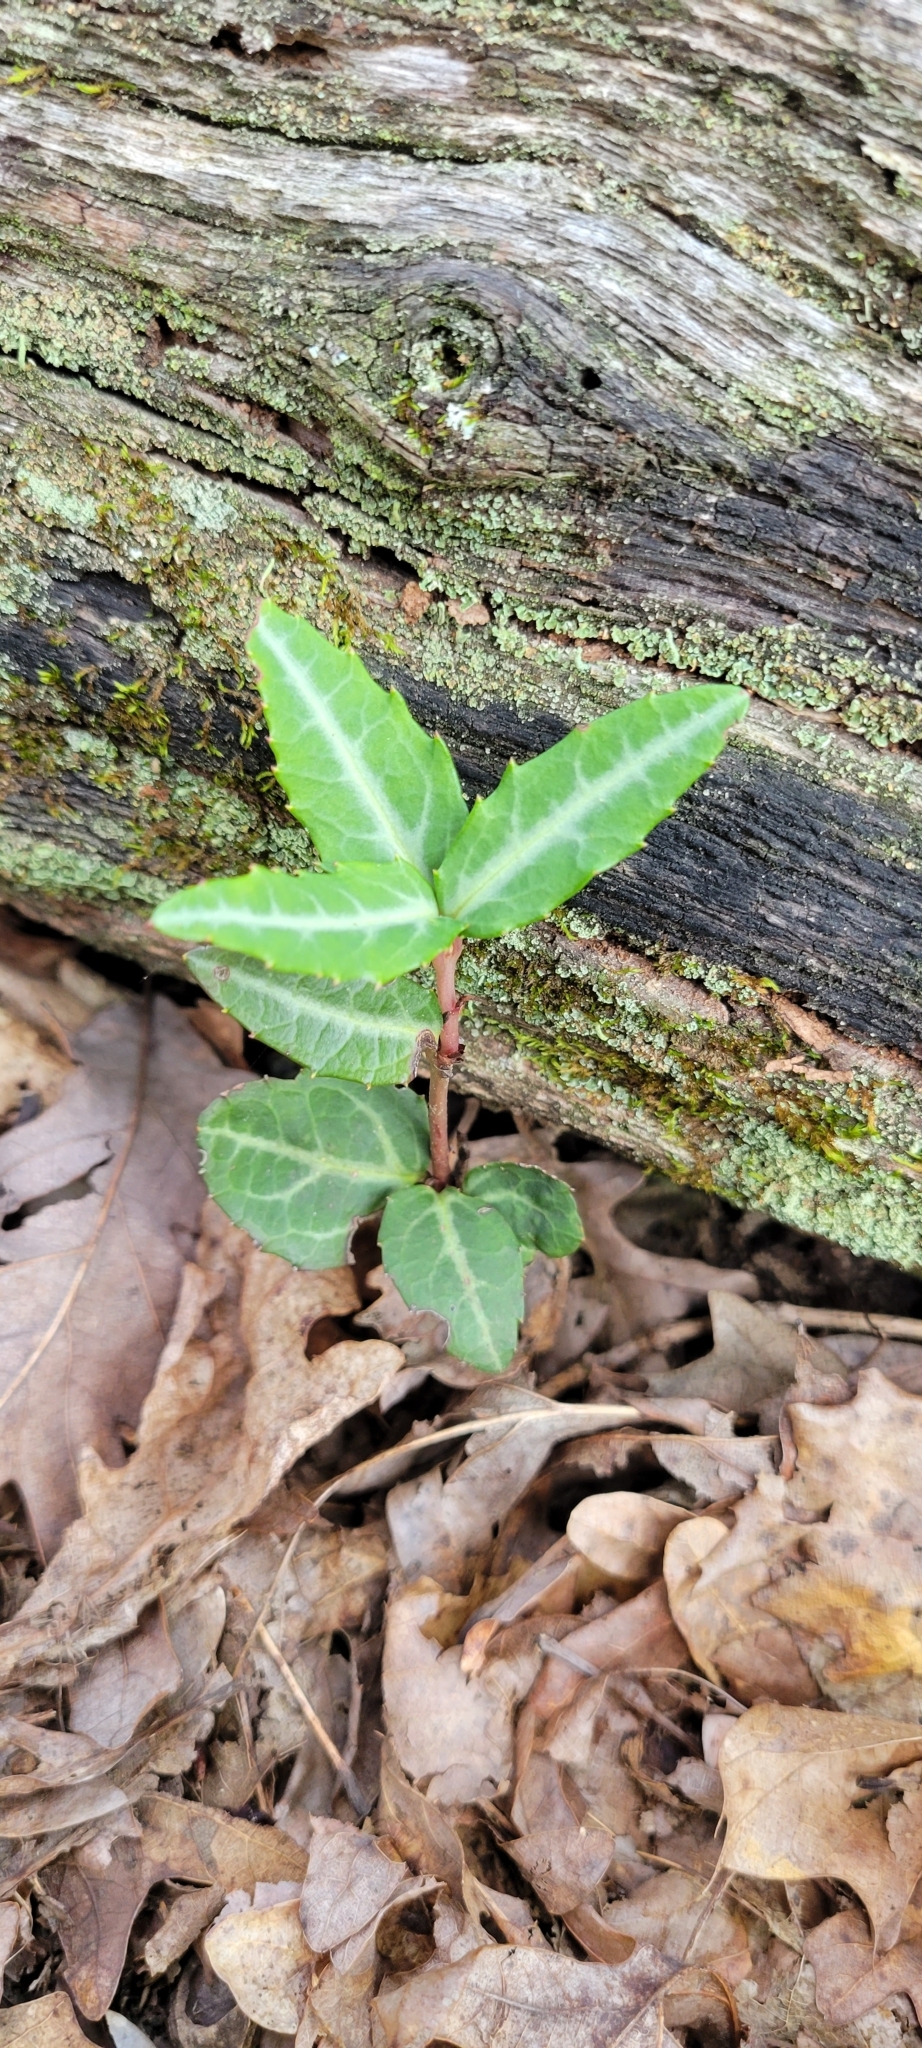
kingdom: Plantae
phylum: Tracheophyta
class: Magnoliopsida
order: Ericales
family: Ericaceae
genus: Chimaphila
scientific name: Chimaphila maculata
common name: Spotted pipsissewa
